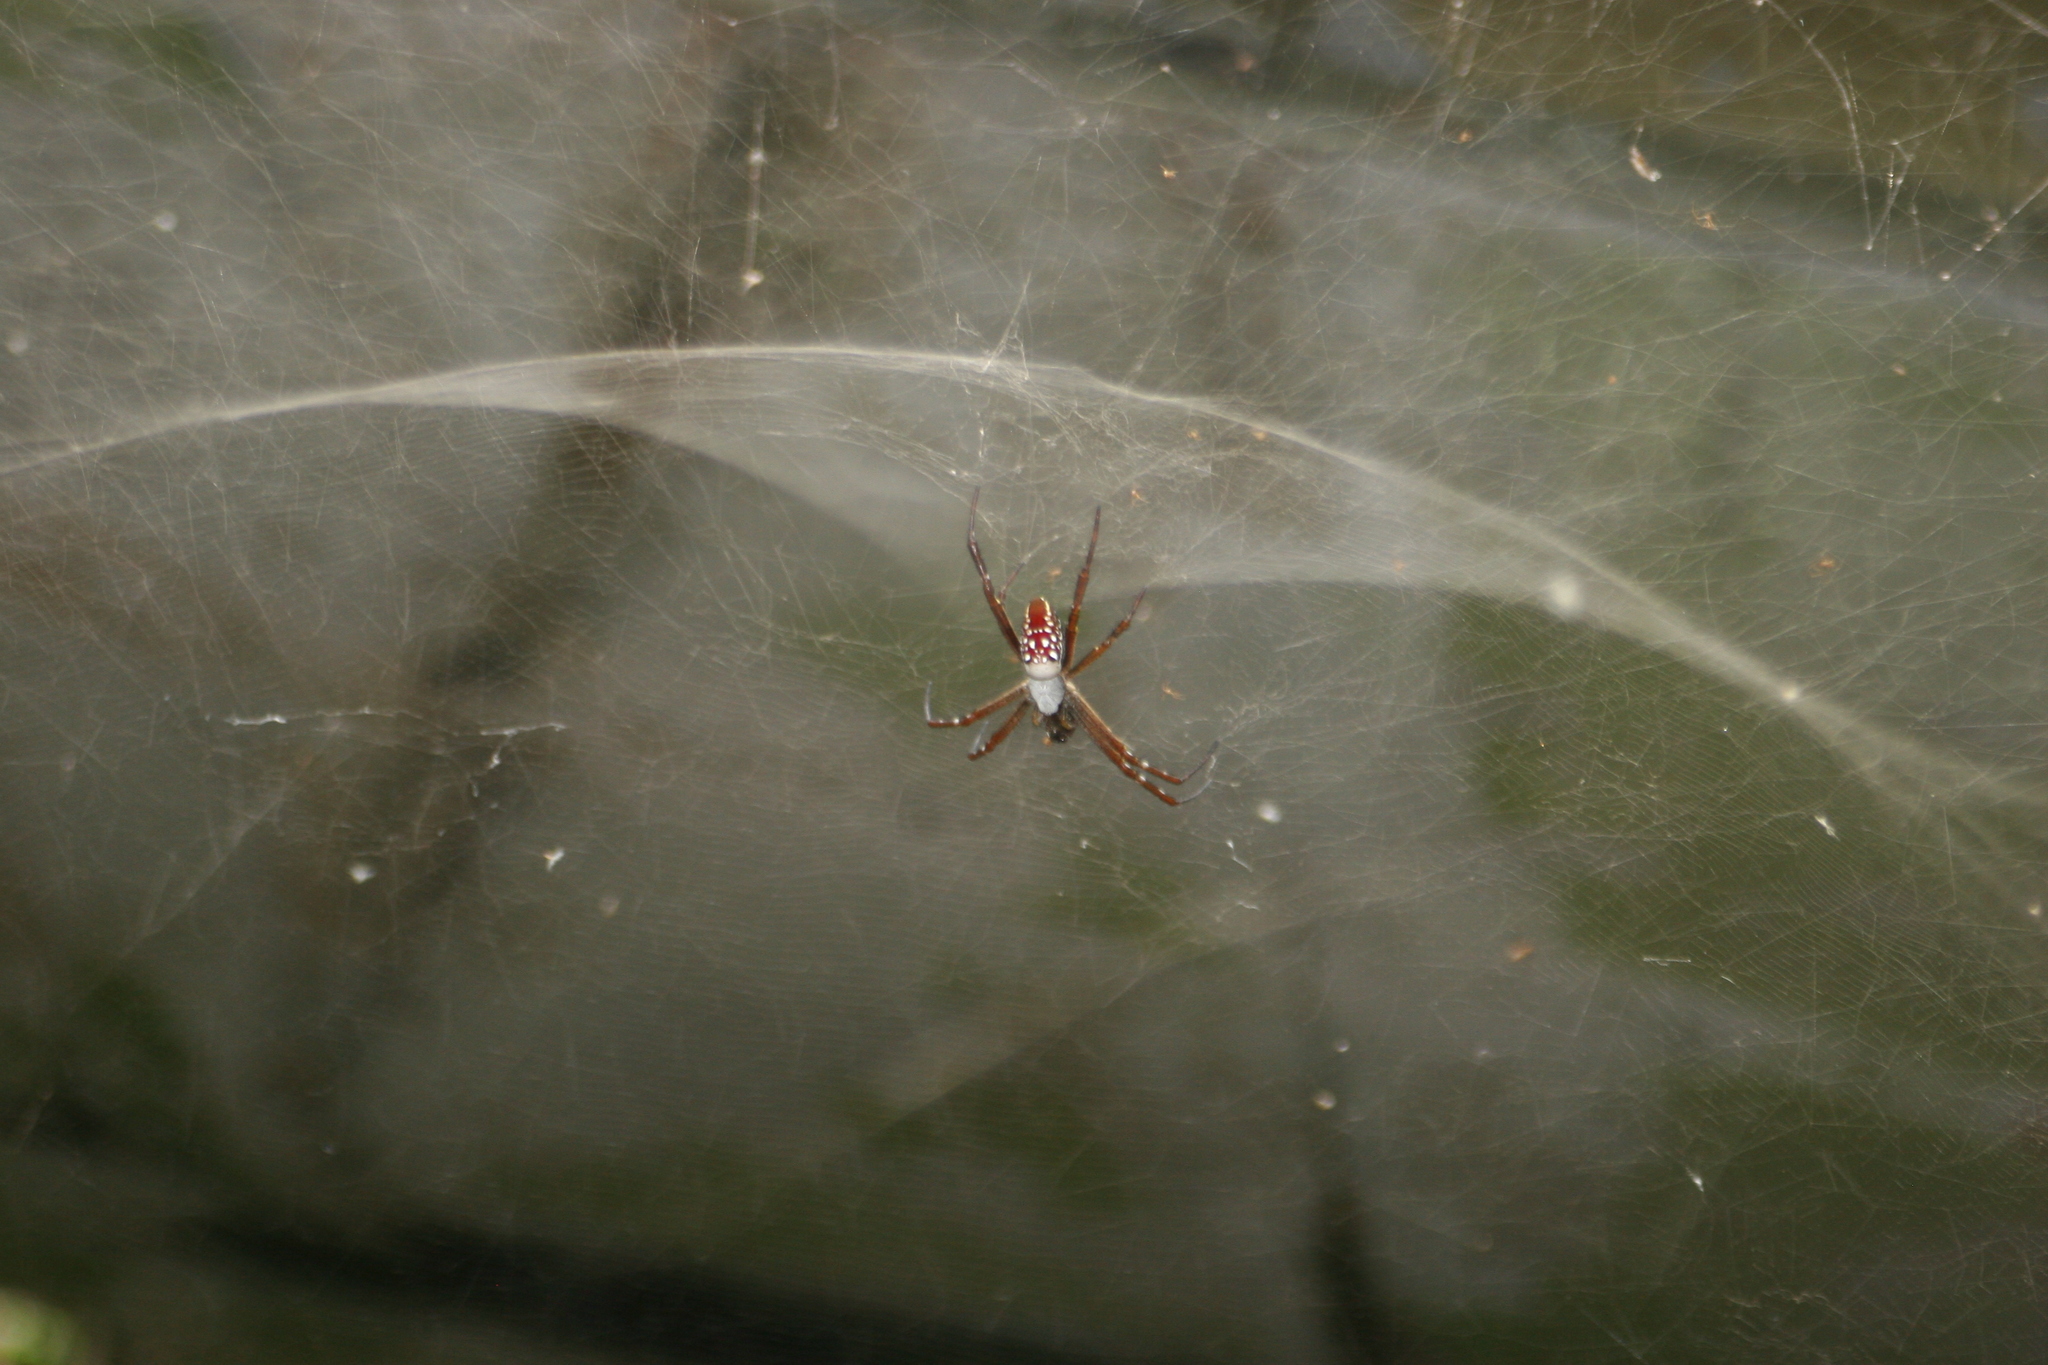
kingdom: Chromista
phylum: Ochrophyta
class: Dictyochophyceae
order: Pedinellales
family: Cyrtophoraceae
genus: Cyrtophora
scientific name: Cyrtophora moluccensis
